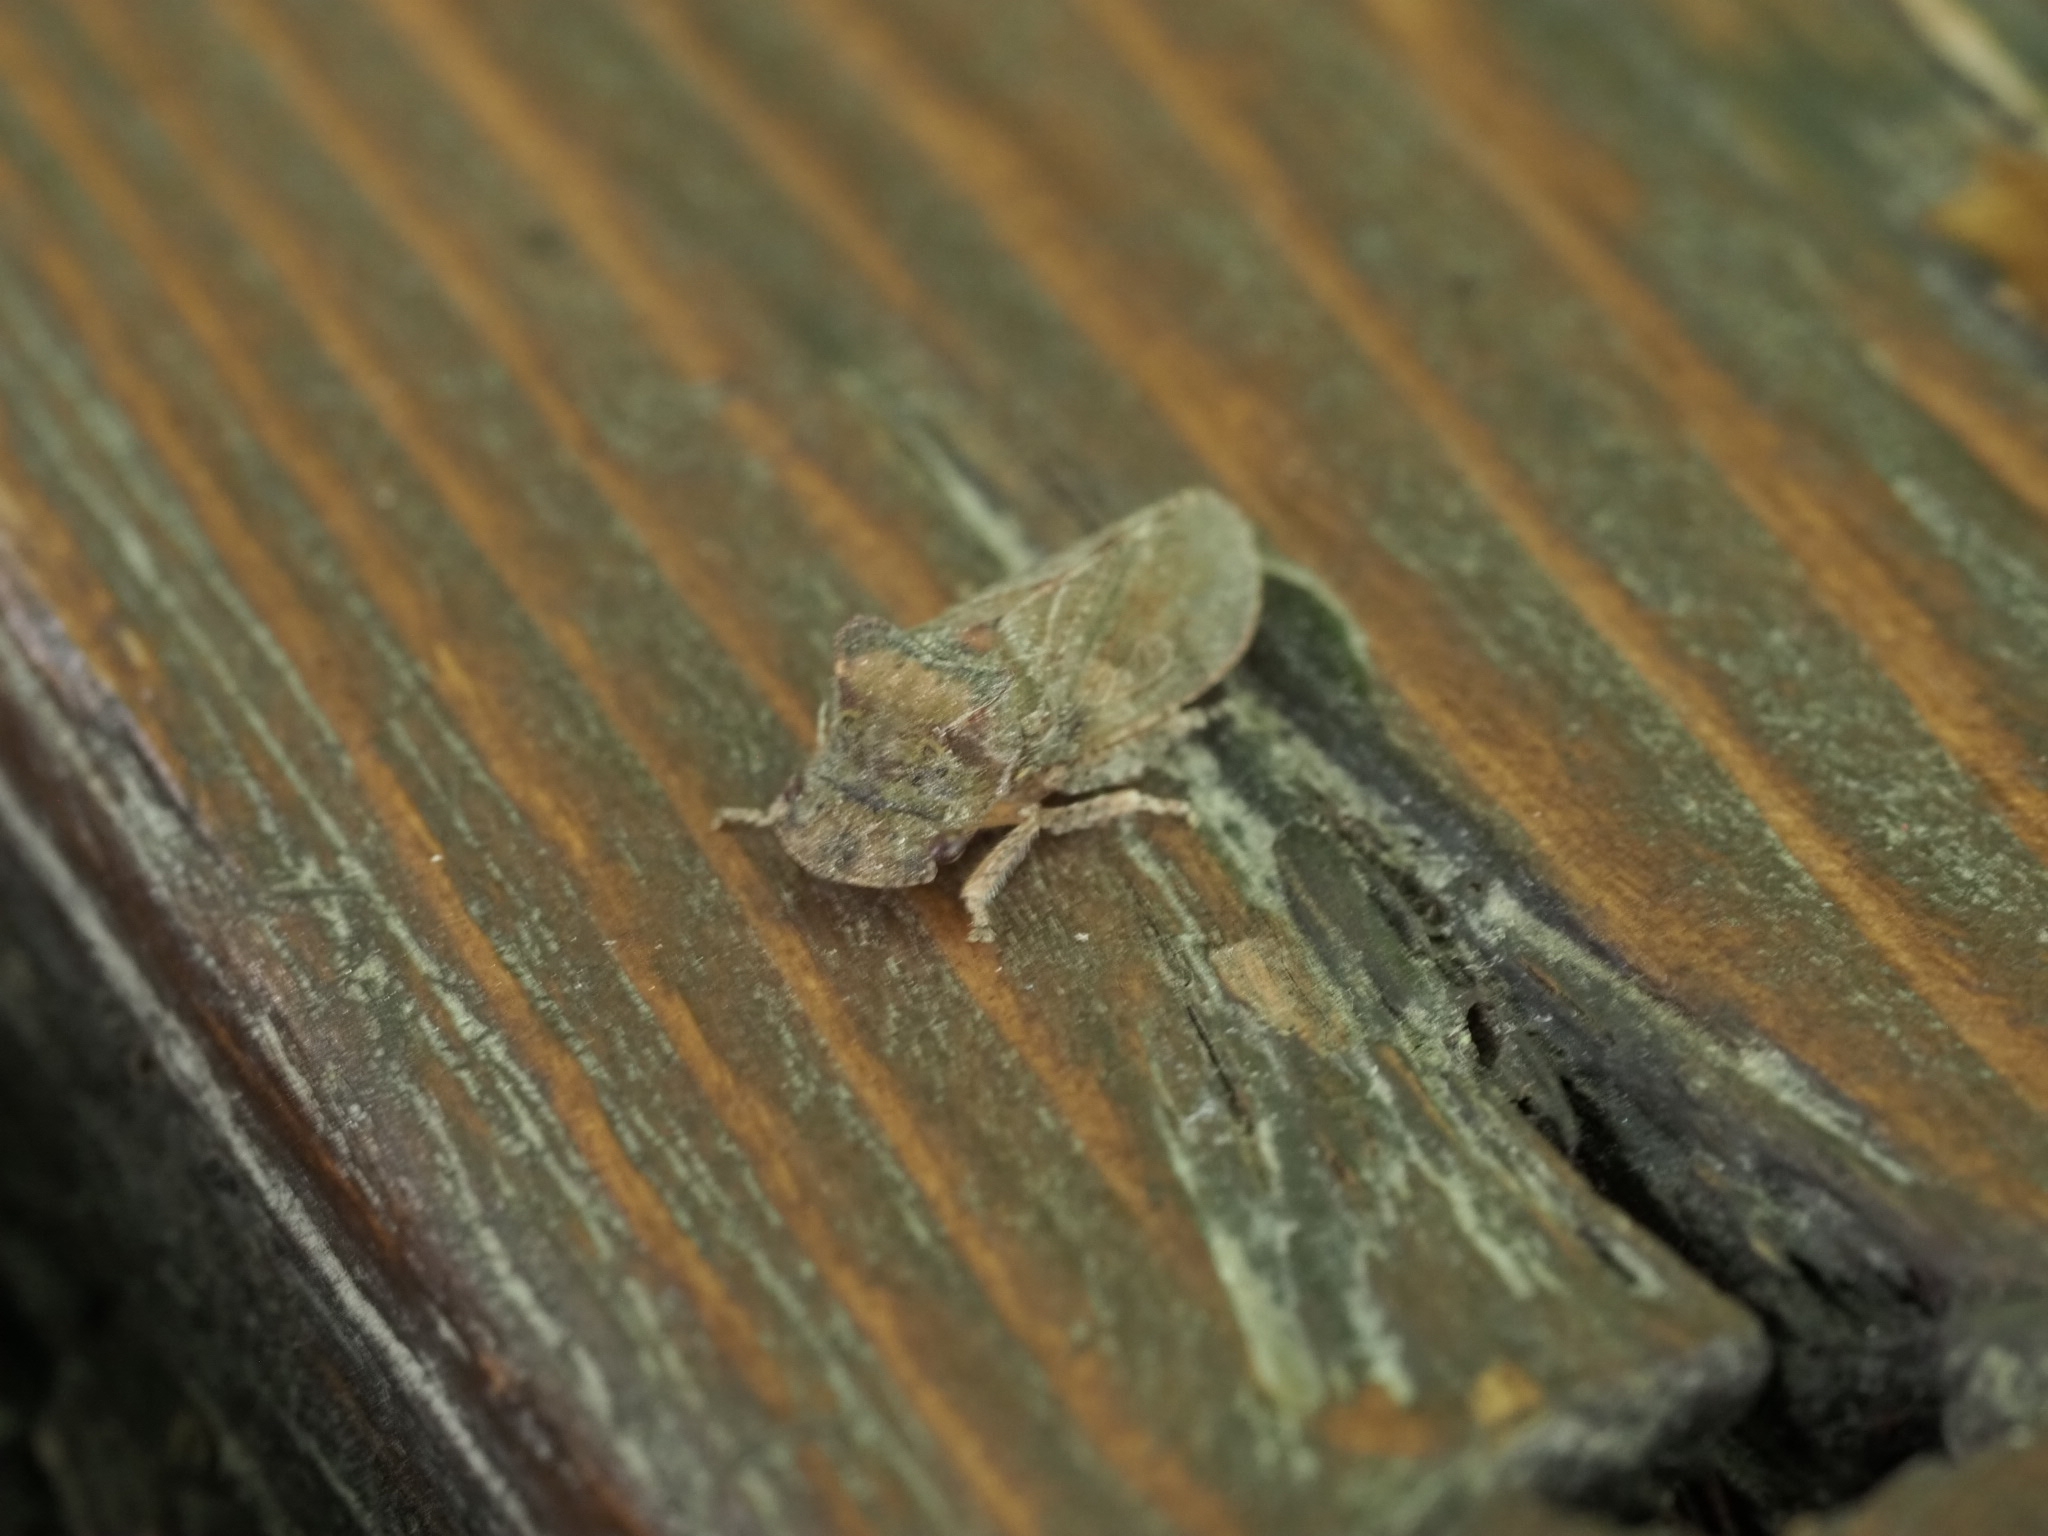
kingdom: Animalia
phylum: Arthropoda
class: Insecta
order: Hemiptera
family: Cicadellidae
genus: Ledra
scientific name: Ledra aurita
